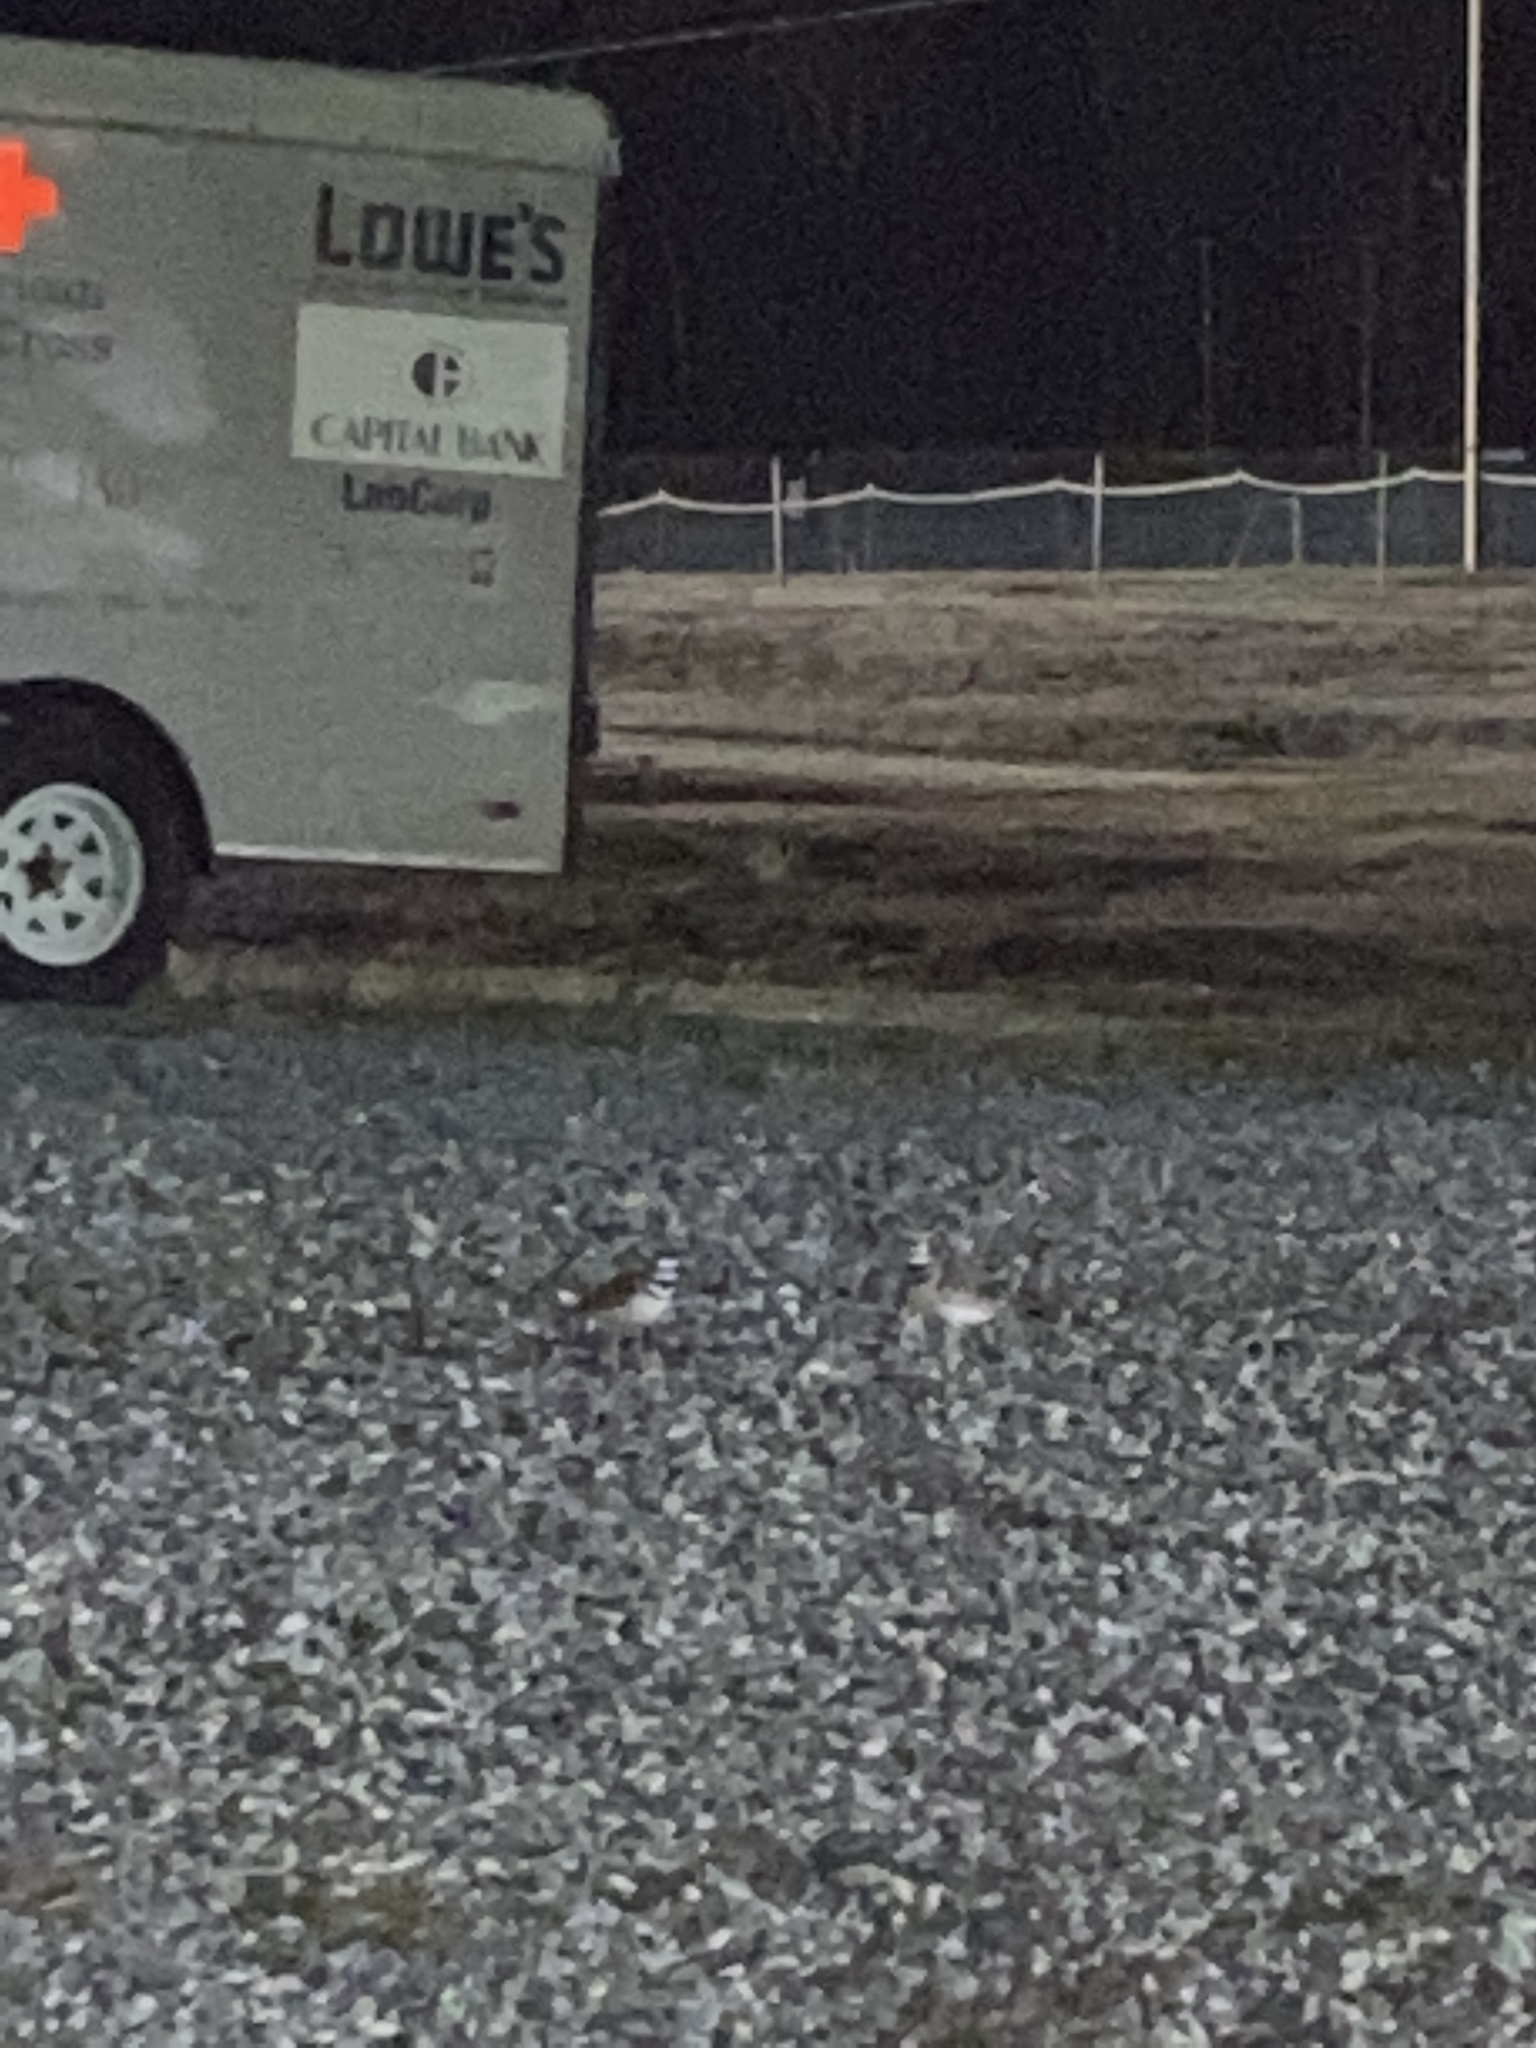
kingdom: Animalia
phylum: Chordata
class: Aves
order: Charadriiformes
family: Charadriidae
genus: Charadrius
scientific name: Charadrius vociferus
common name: Killdeer
